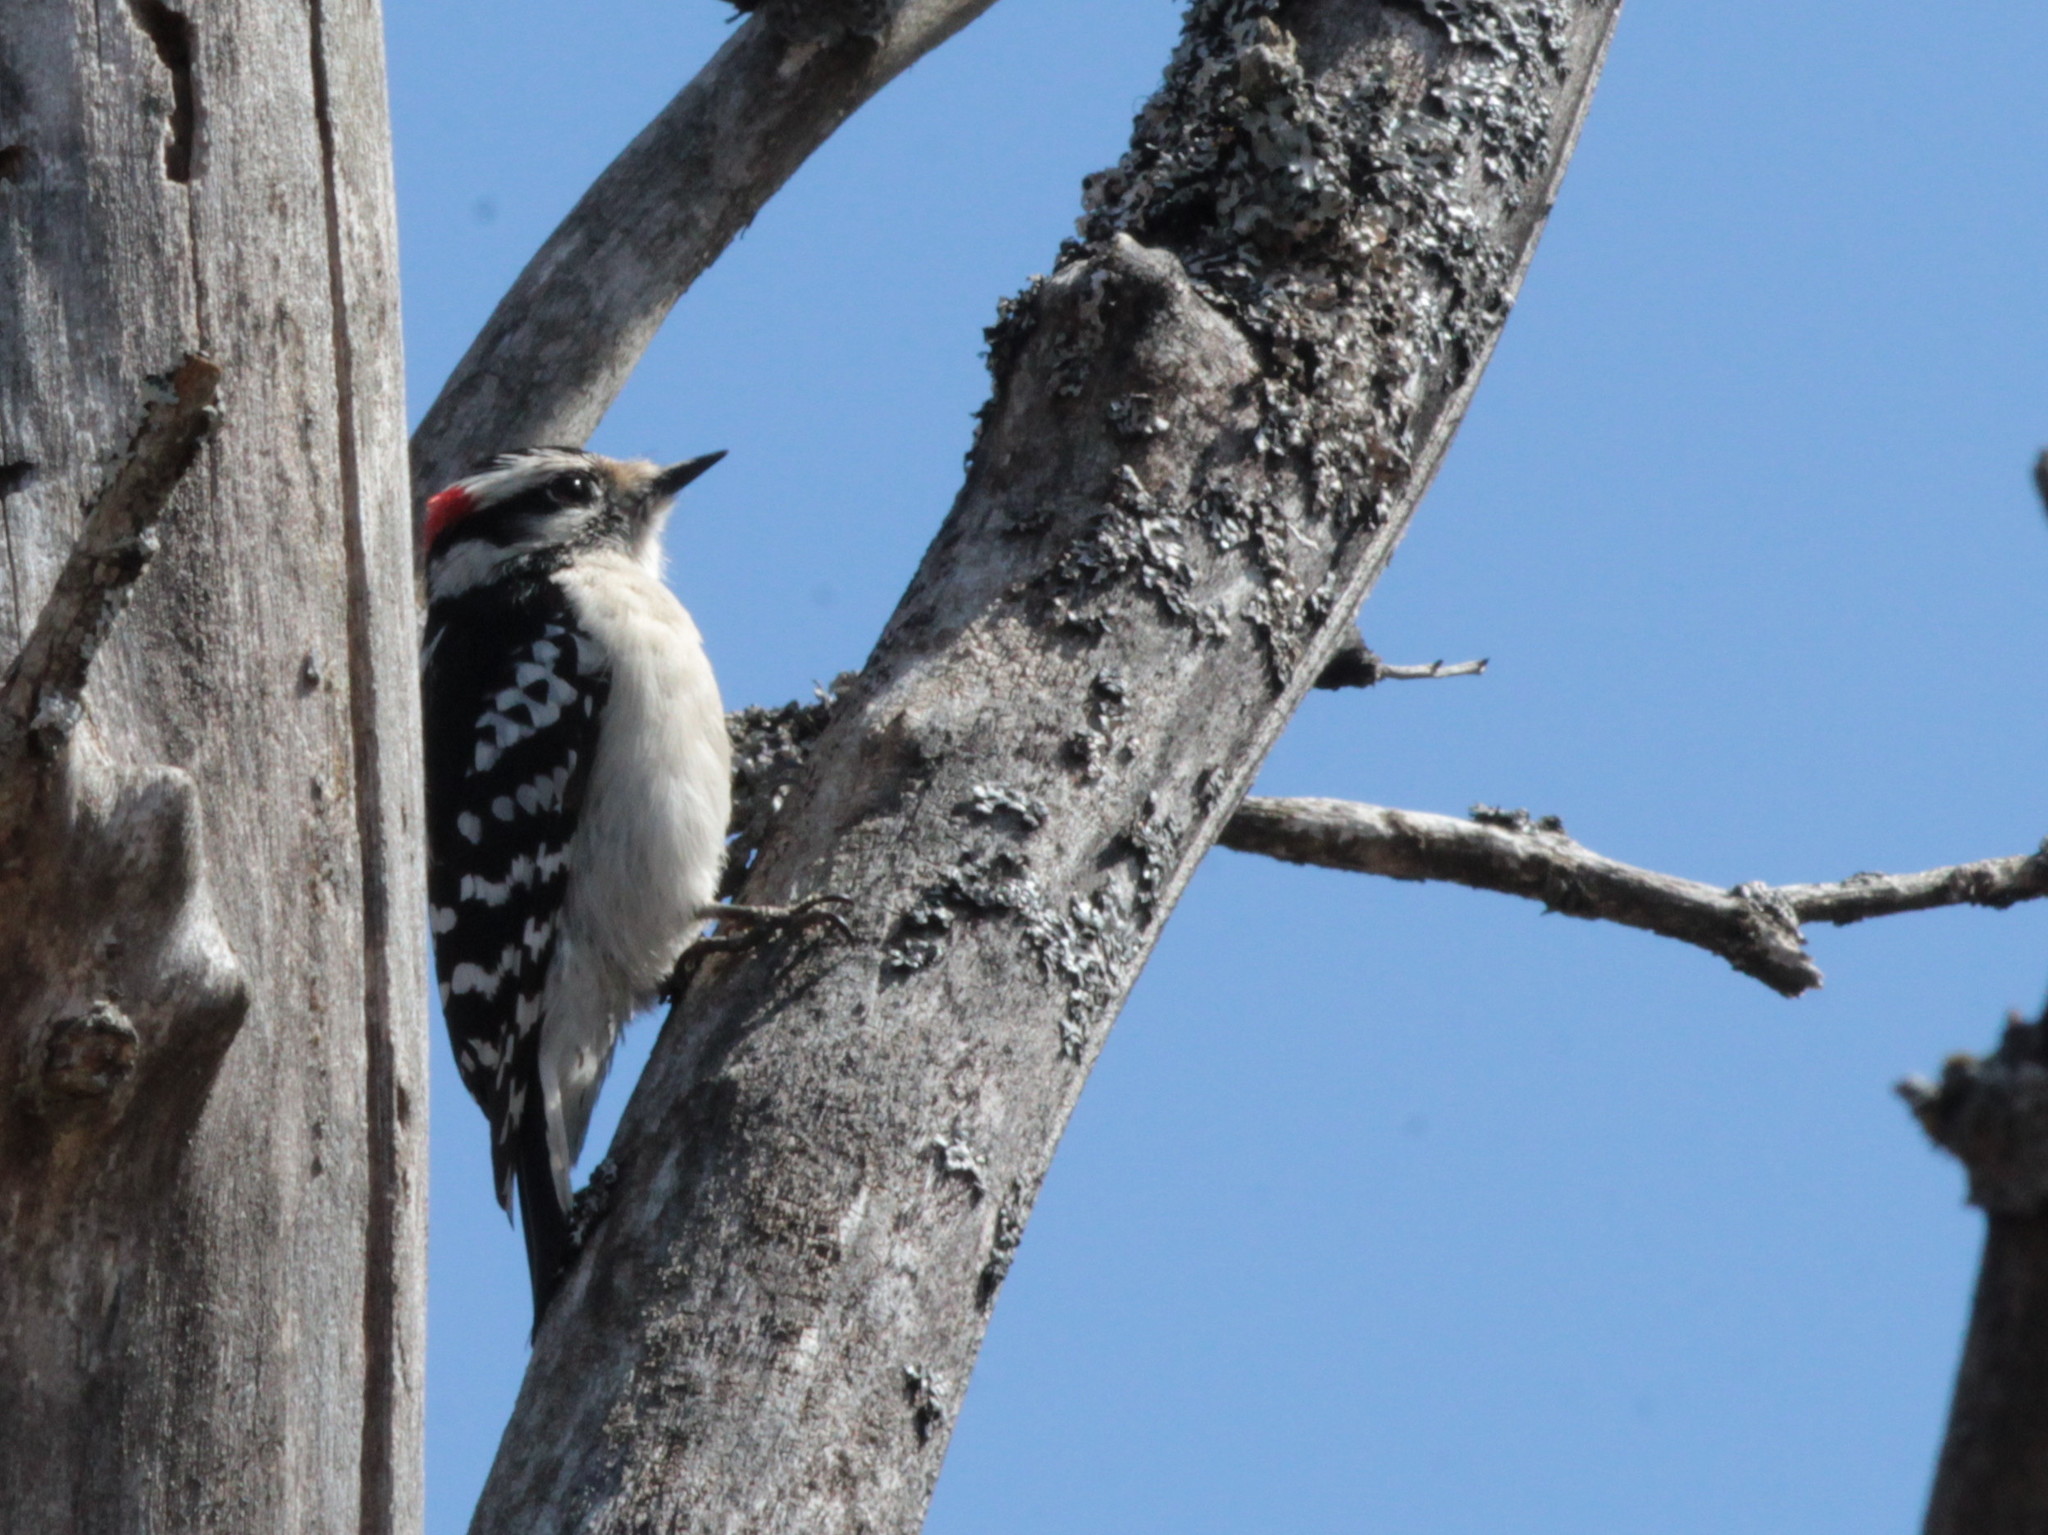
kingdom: Animalia
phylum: Chordata
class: Aves
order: Piciformes
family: Picidae
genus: Dryobates
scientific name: Dryobates pubescens
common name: Downy woodpecker
